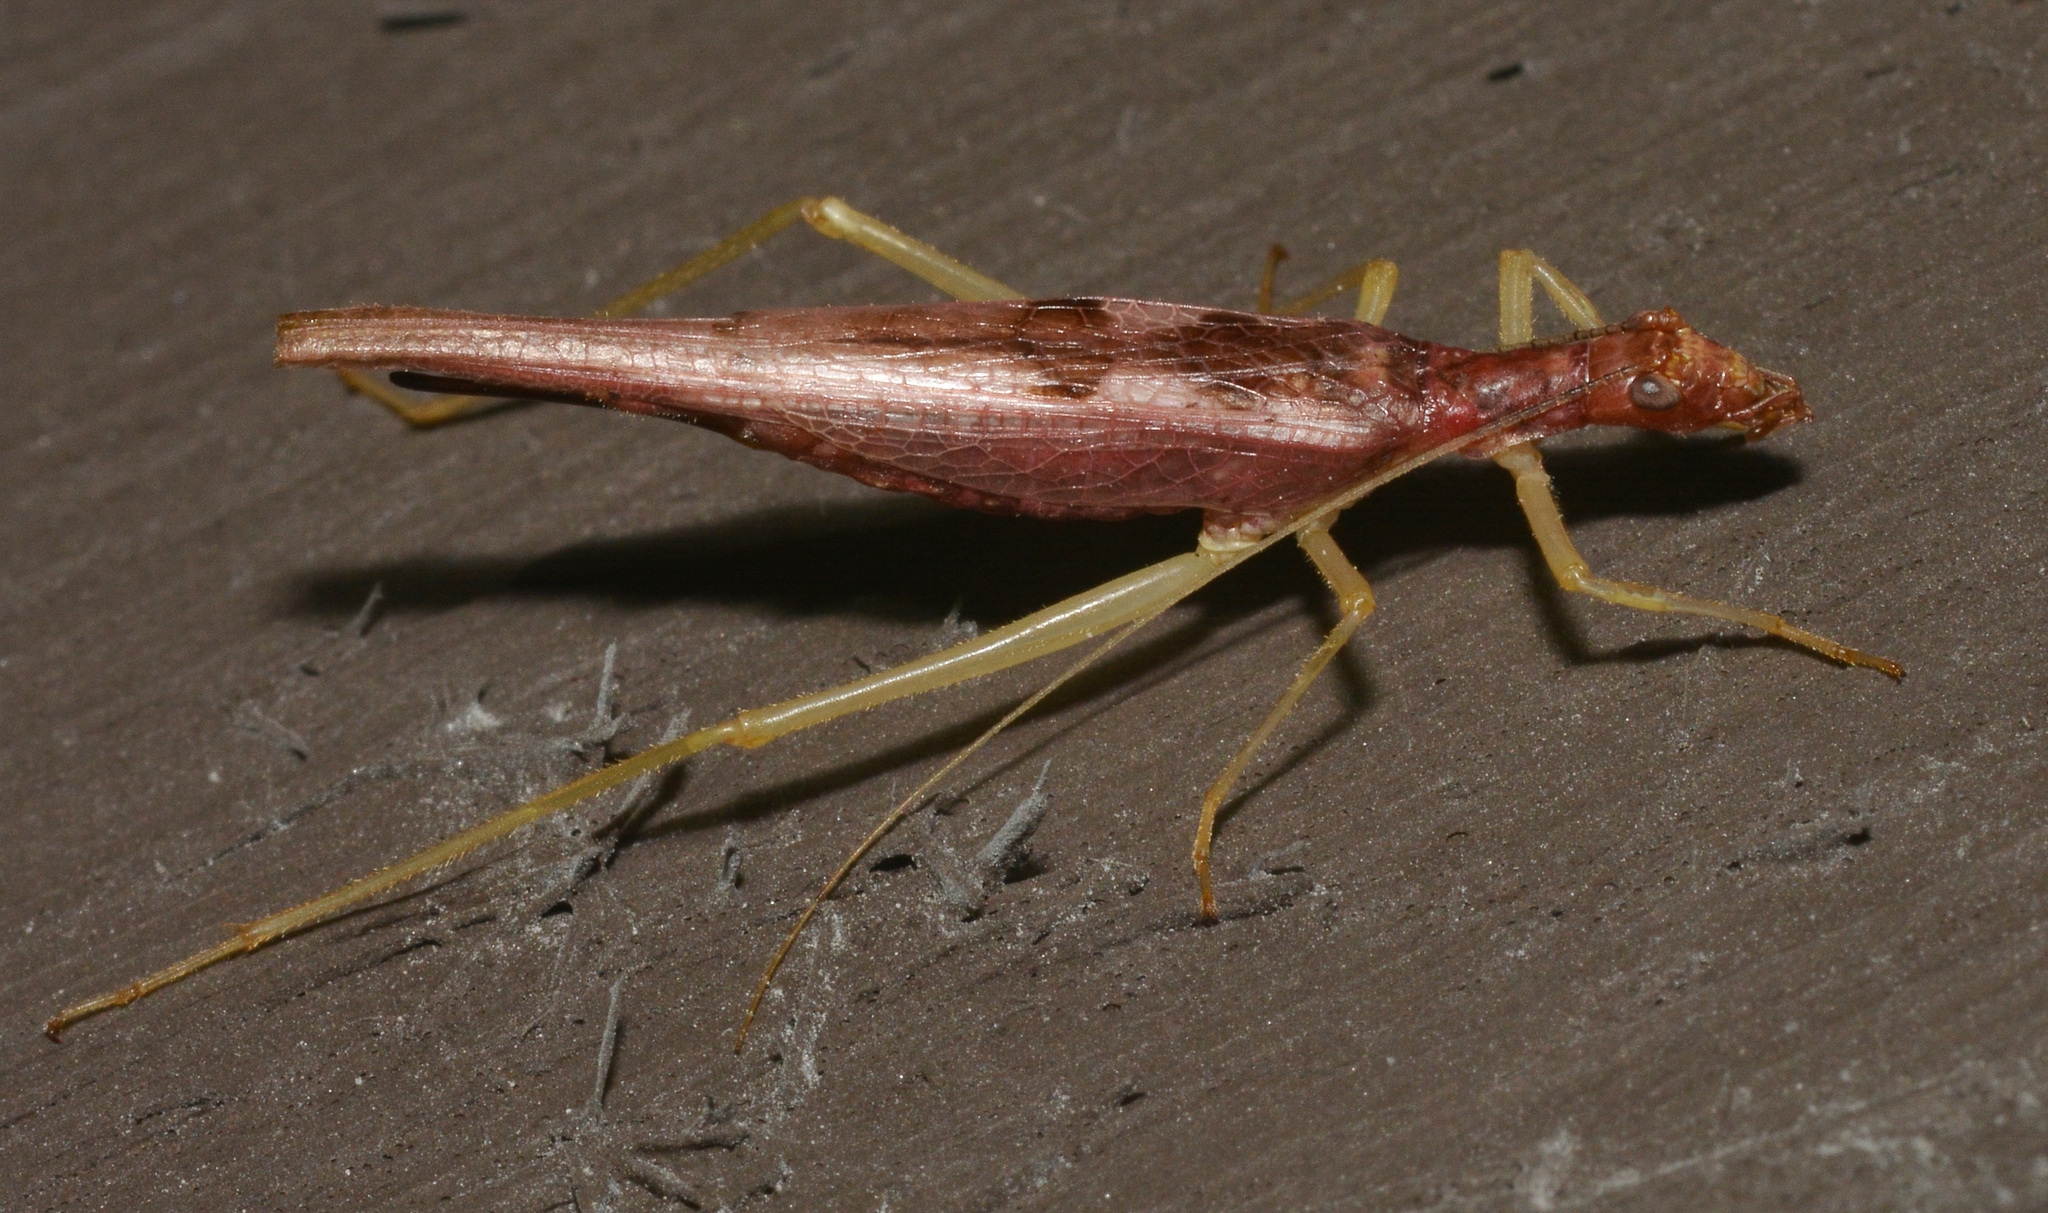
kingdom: Animalia
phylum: Arthropoda
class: Insecta
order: Orthoptera
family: Gryllidae
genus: Neoxabea
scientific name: Neoxabea bipunctata
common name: Two-spotted tree cricket
